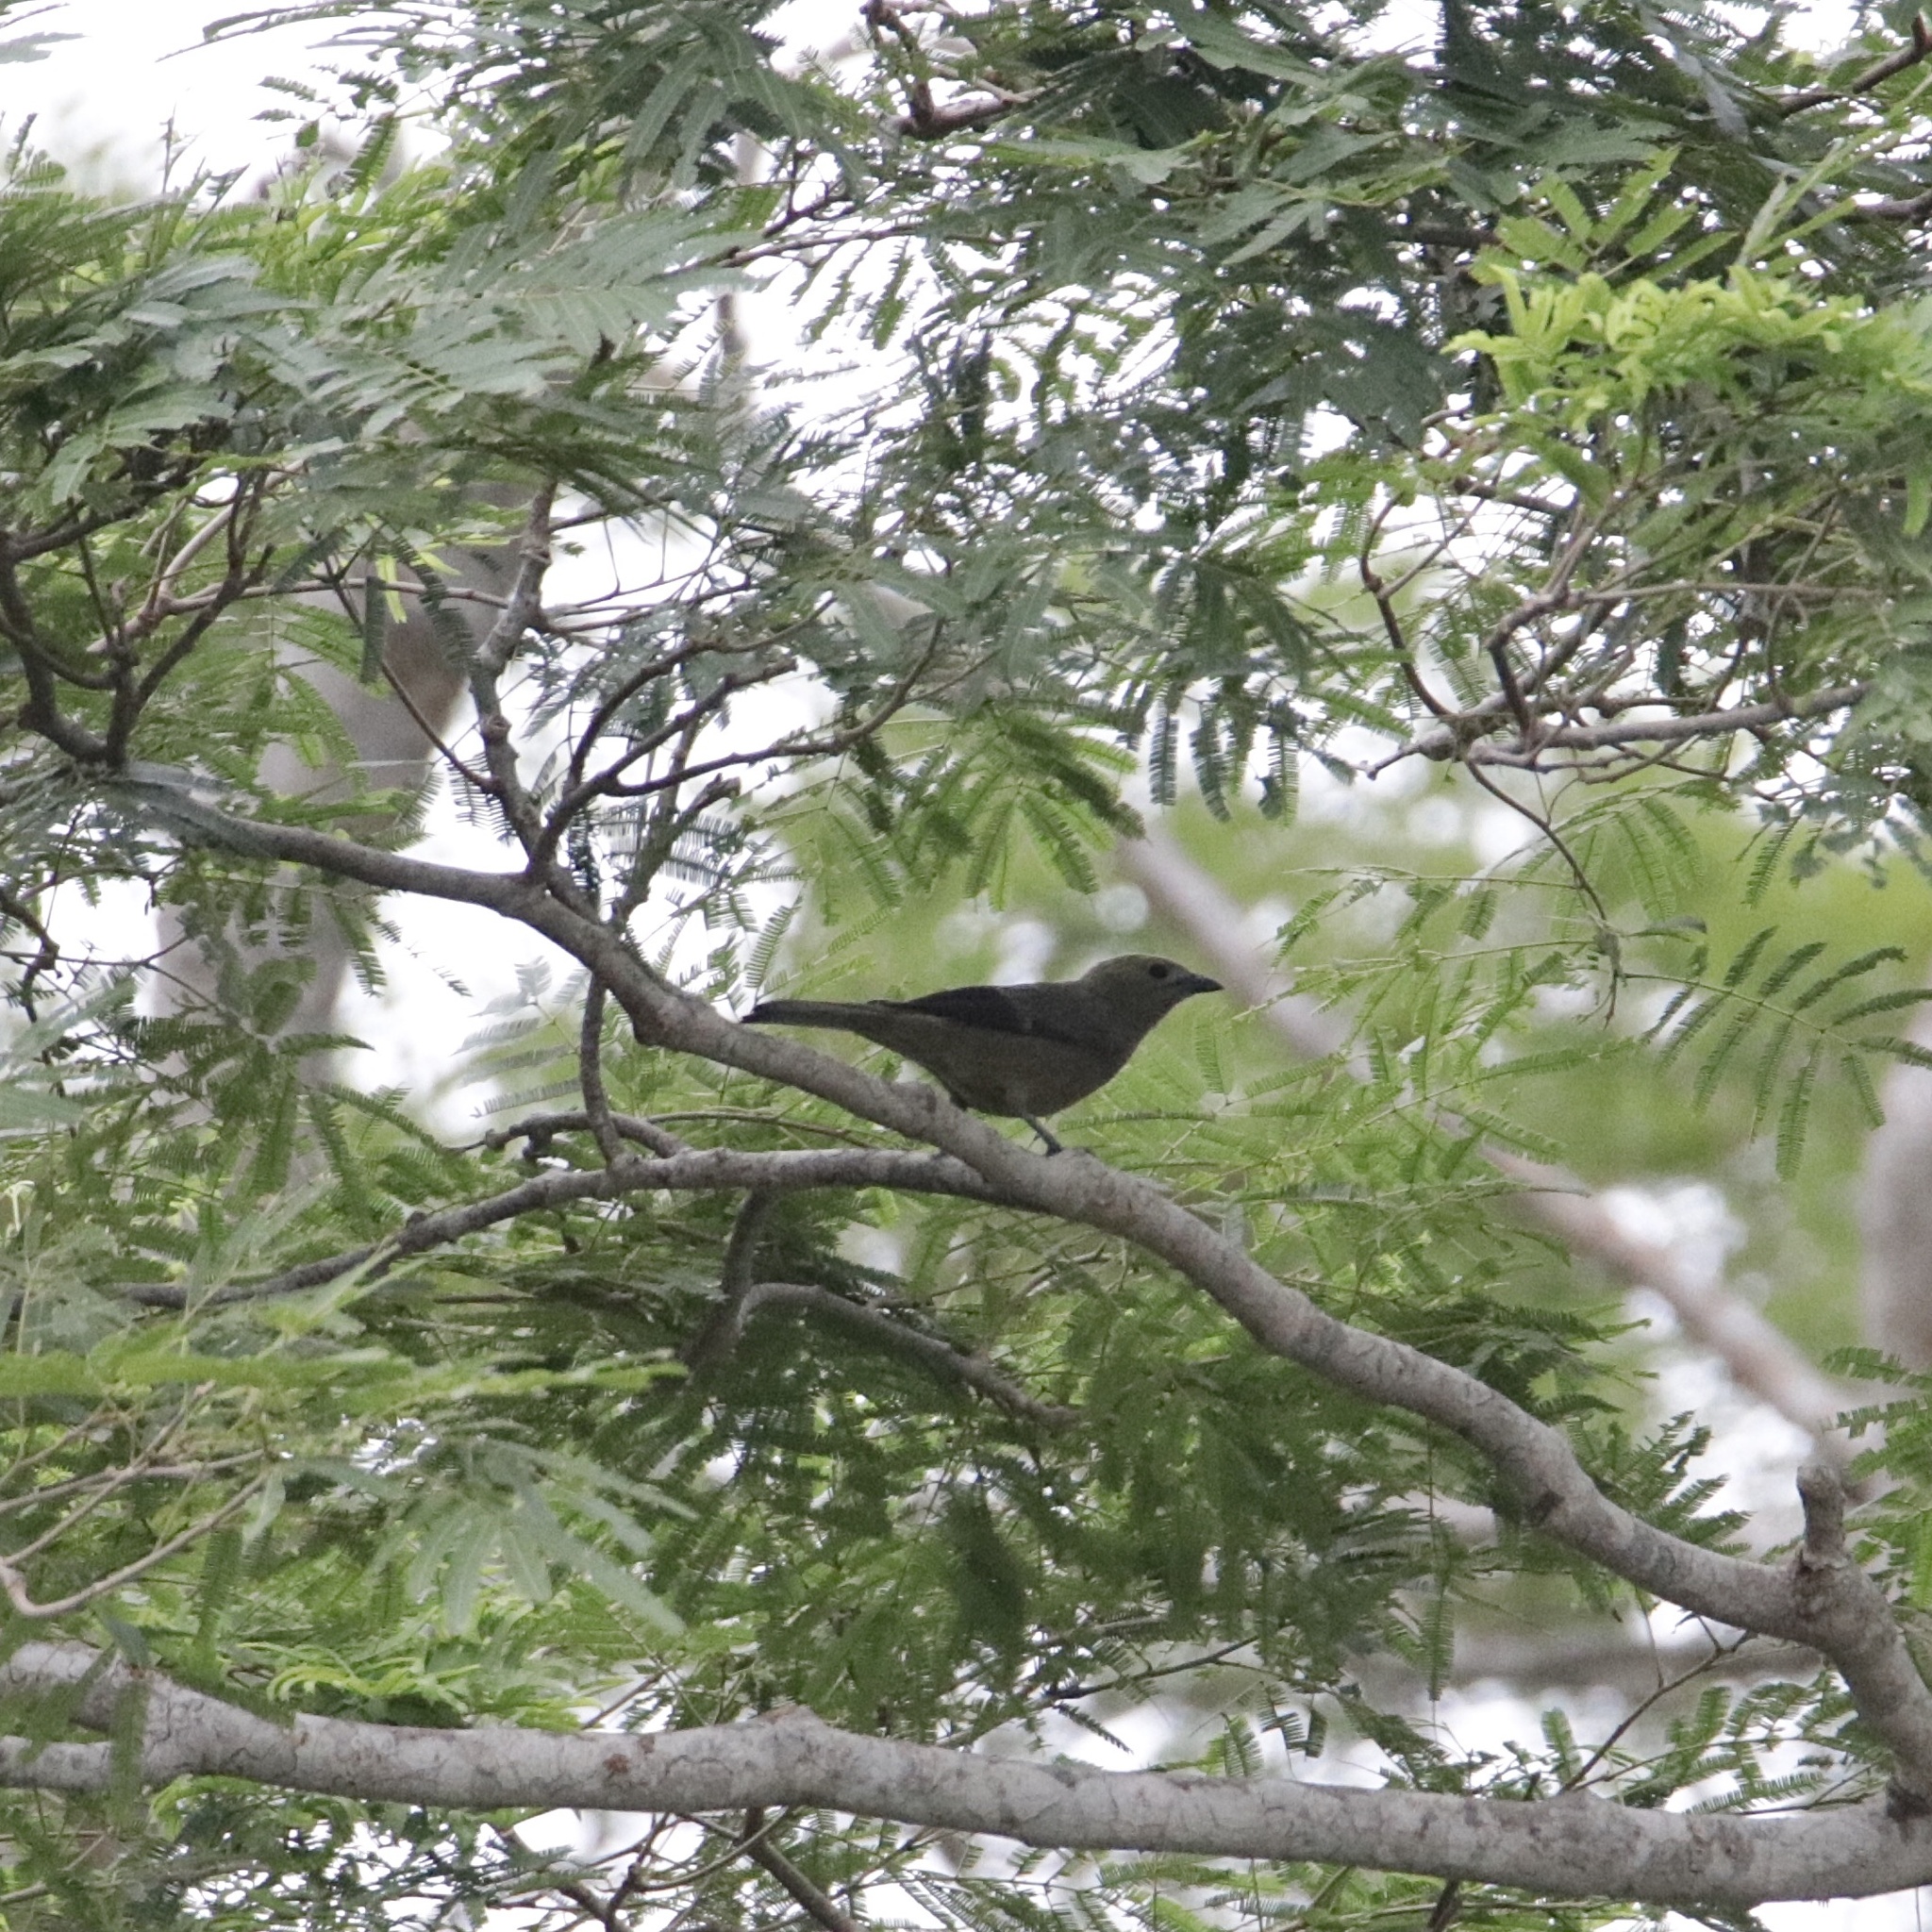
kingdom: Animalia
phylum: Chordata
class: Aves
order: Passeriformes
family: Thraupidae
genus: Thraupis
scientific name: Thraupis palmarum
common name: Palm tanager
